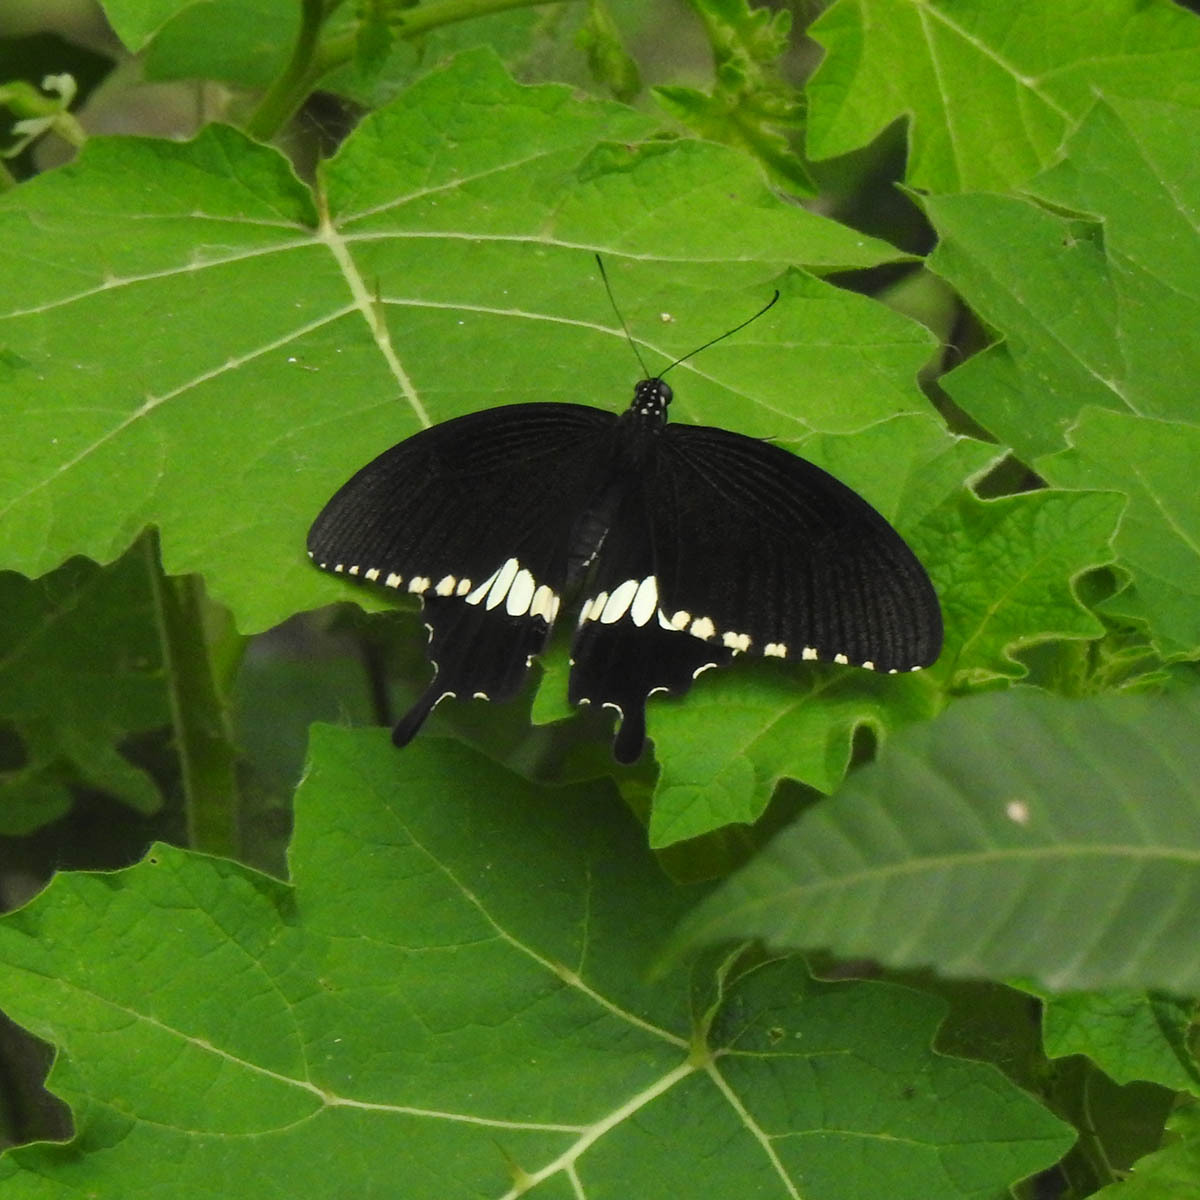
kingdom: Animalia
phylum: Arthropoda
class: Insecta
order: Lepidoptera
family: Papilionidae
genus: Papilio
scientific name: Papilio polytes
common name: Common mormon
